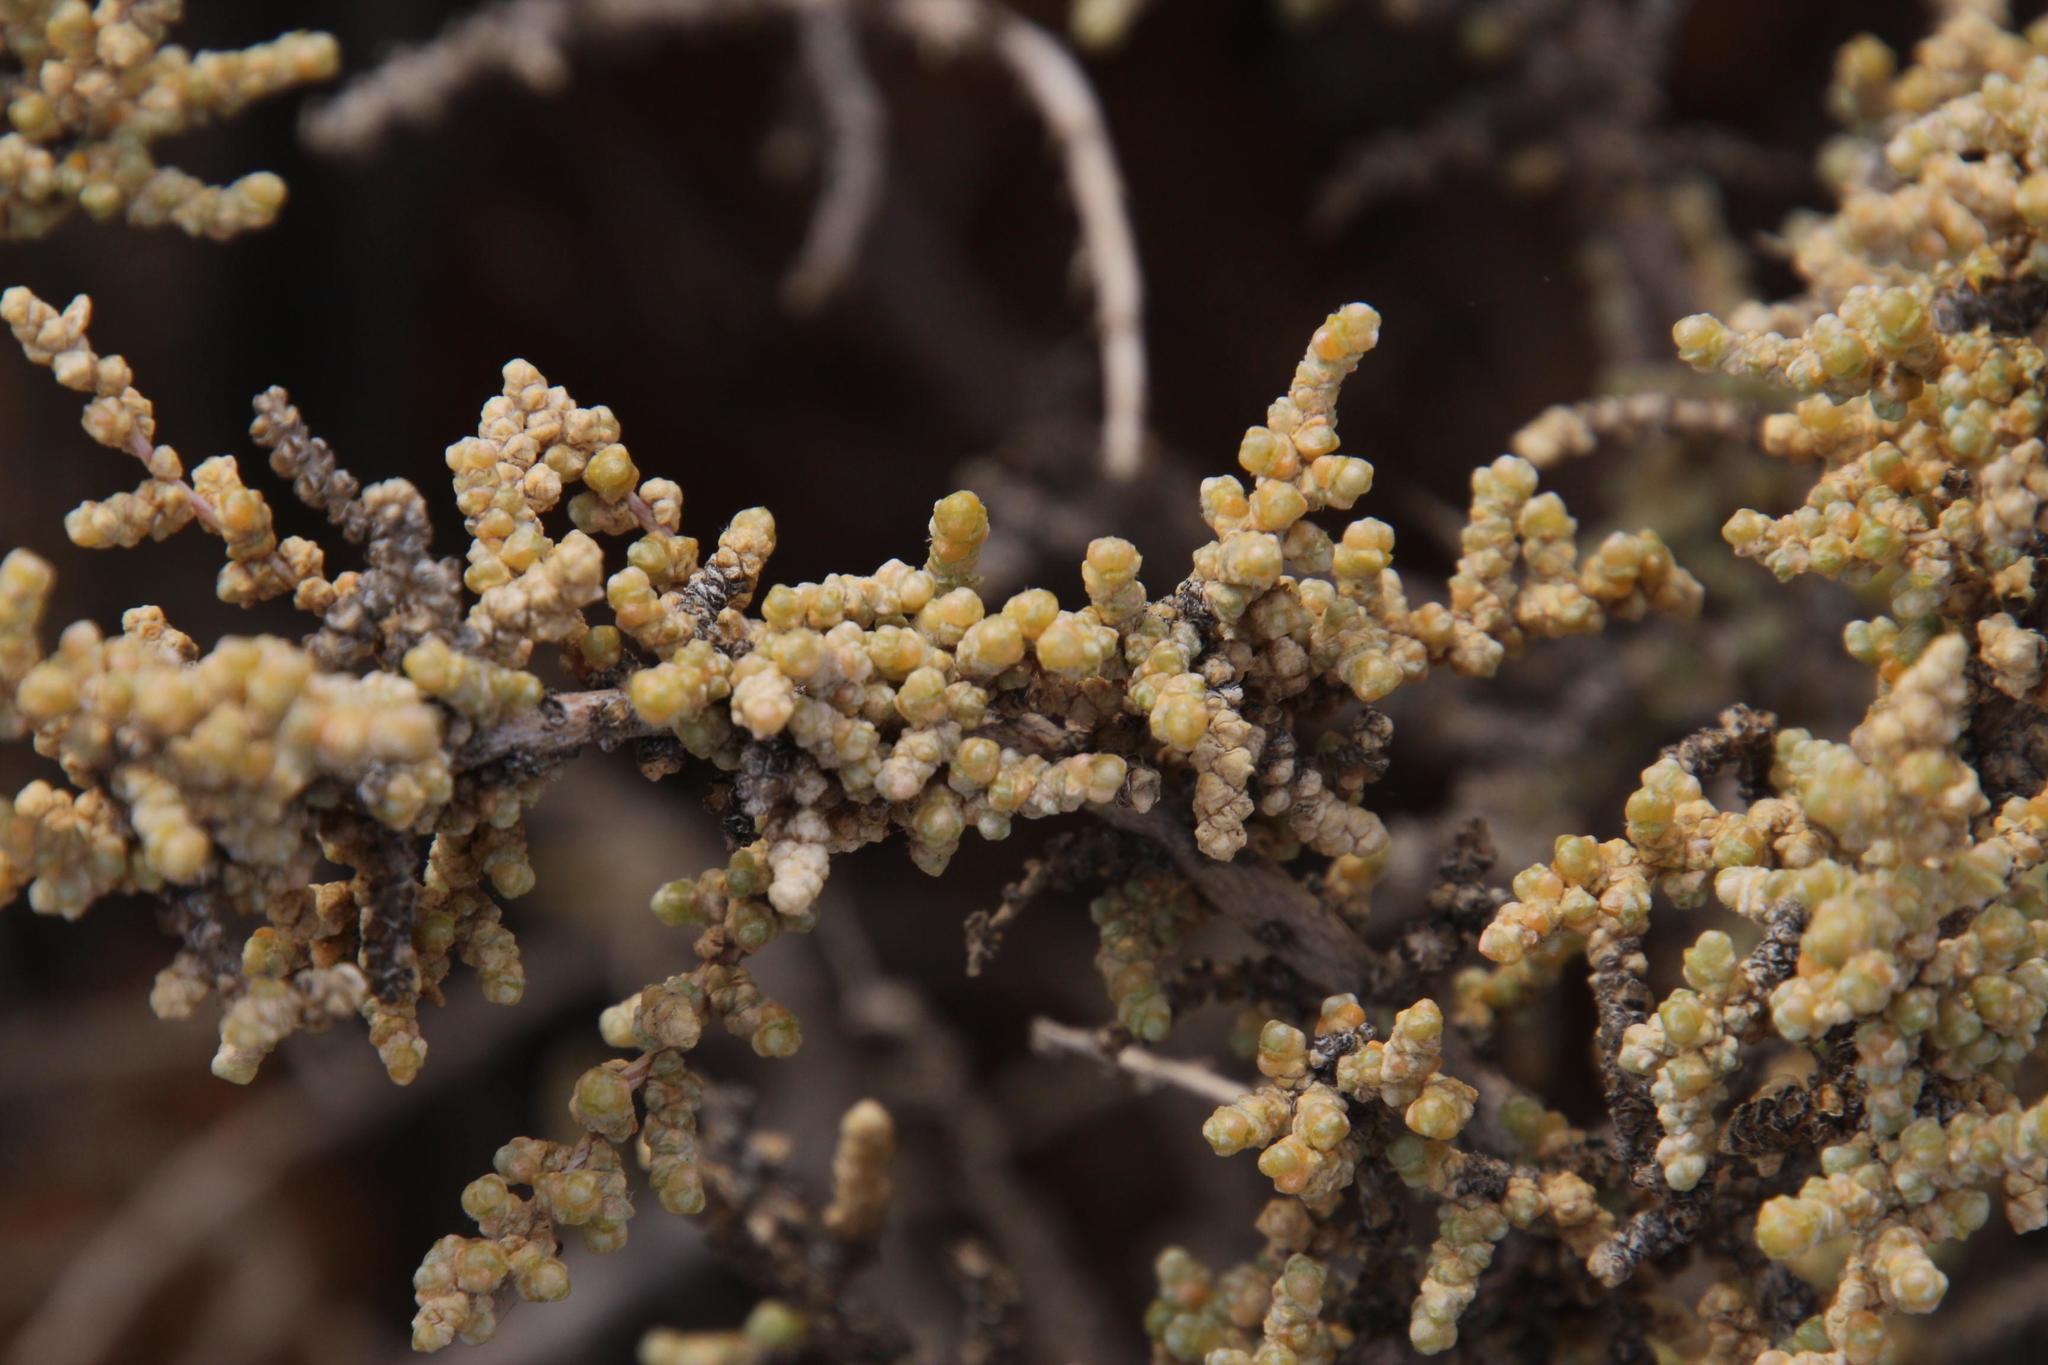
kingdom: Plantae
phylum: Tracheophyta
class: Magnoliopsida
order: Caryophyllales
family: Amaranthaceae
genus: Caroxylon
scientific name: Caroxylon aphyllum
